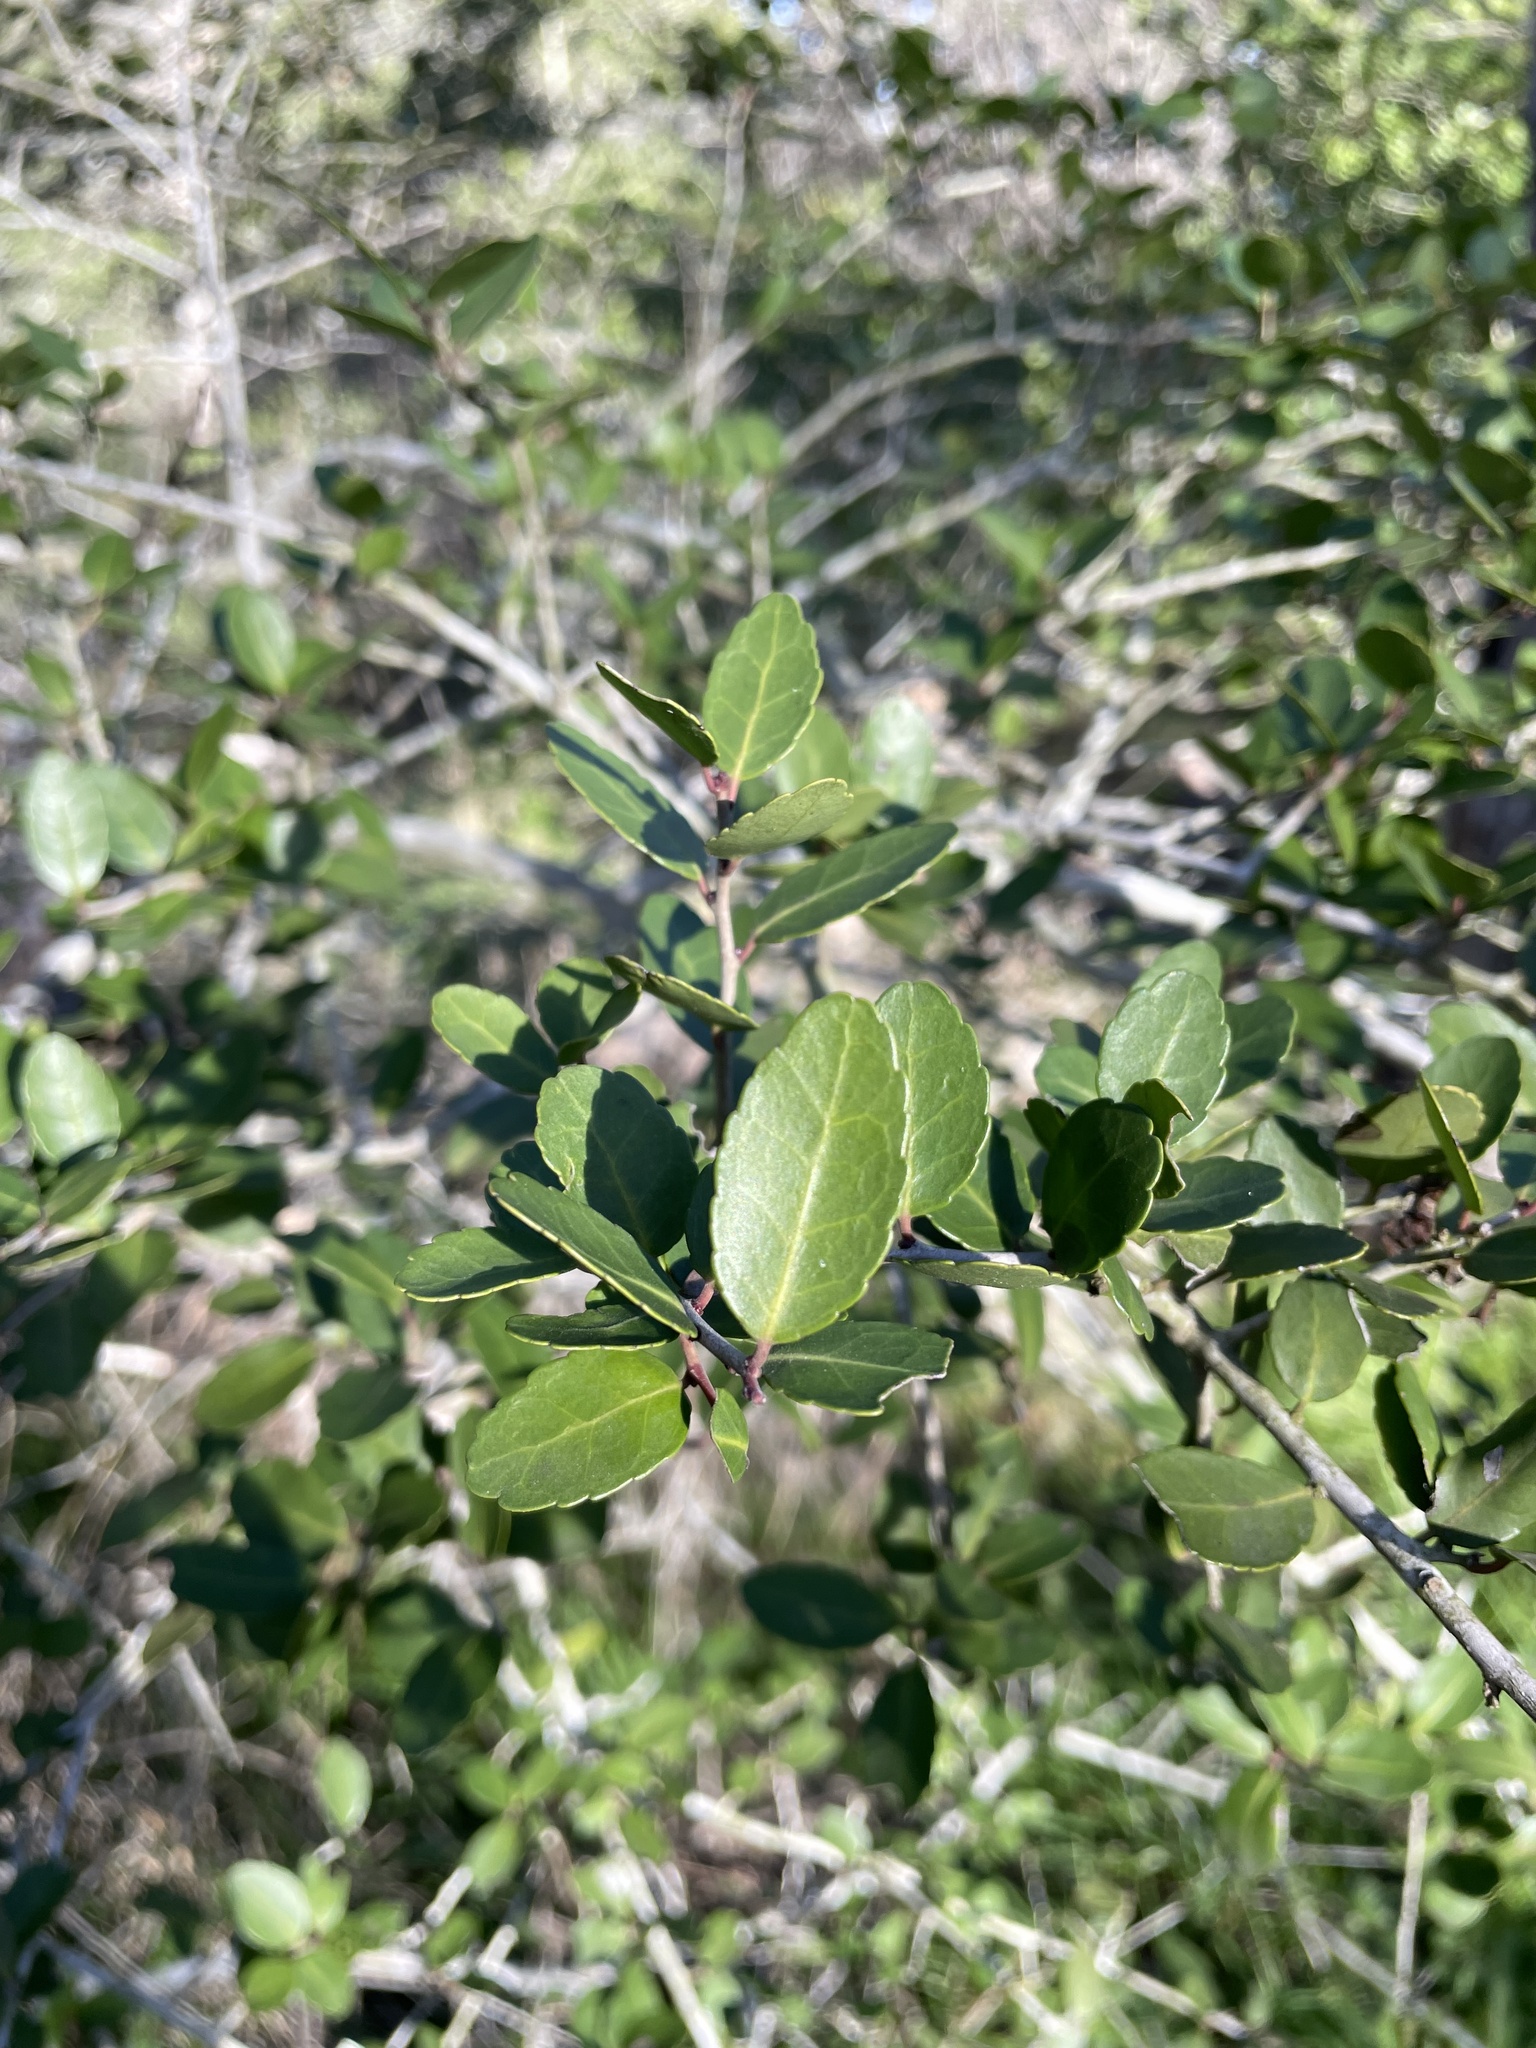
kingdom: Plantae
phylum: Tracheophyta
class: Magnoliopsida
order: Aquifoliales
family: Aquifoliaceae
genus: Ilex
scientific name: Ilex vomitoria
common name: Yaupon holly
